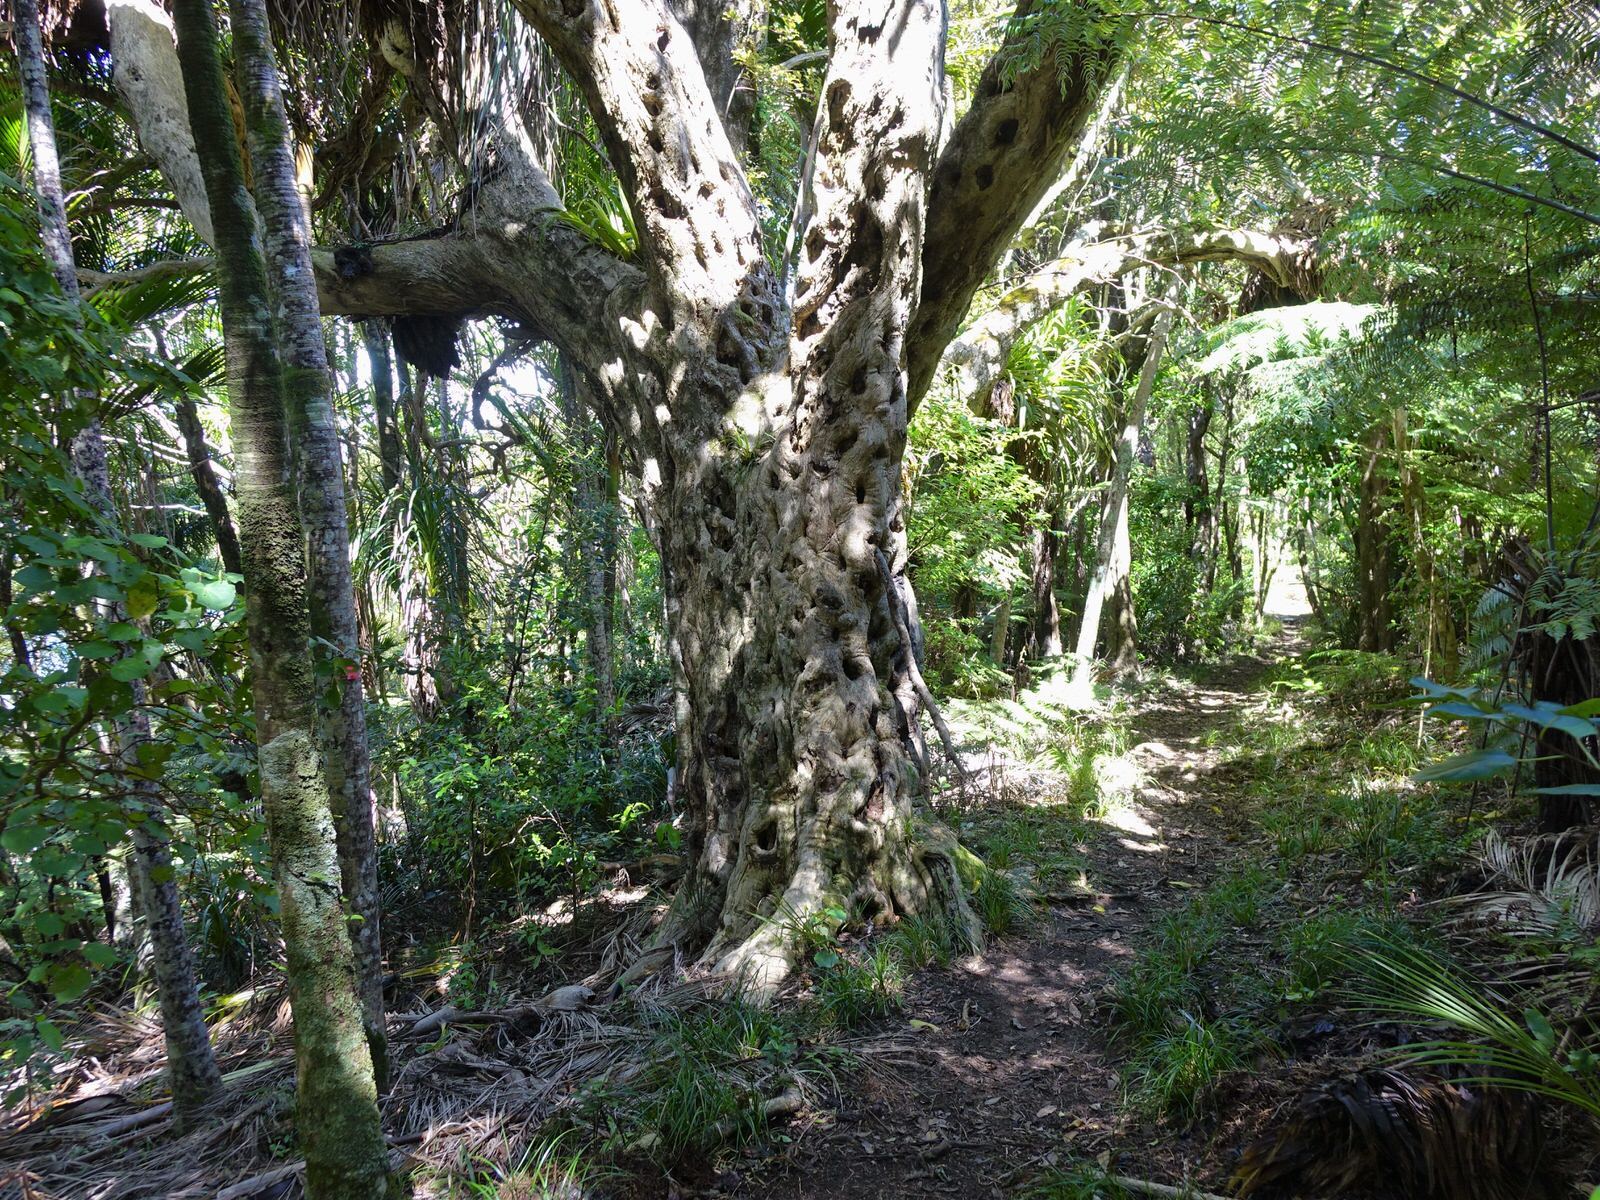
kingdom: Plantae
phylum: Tracheophyta
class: Magnoliopsida
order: Lamiales
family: Lamiaceae
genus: Vitex
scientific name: Vitex lucens
